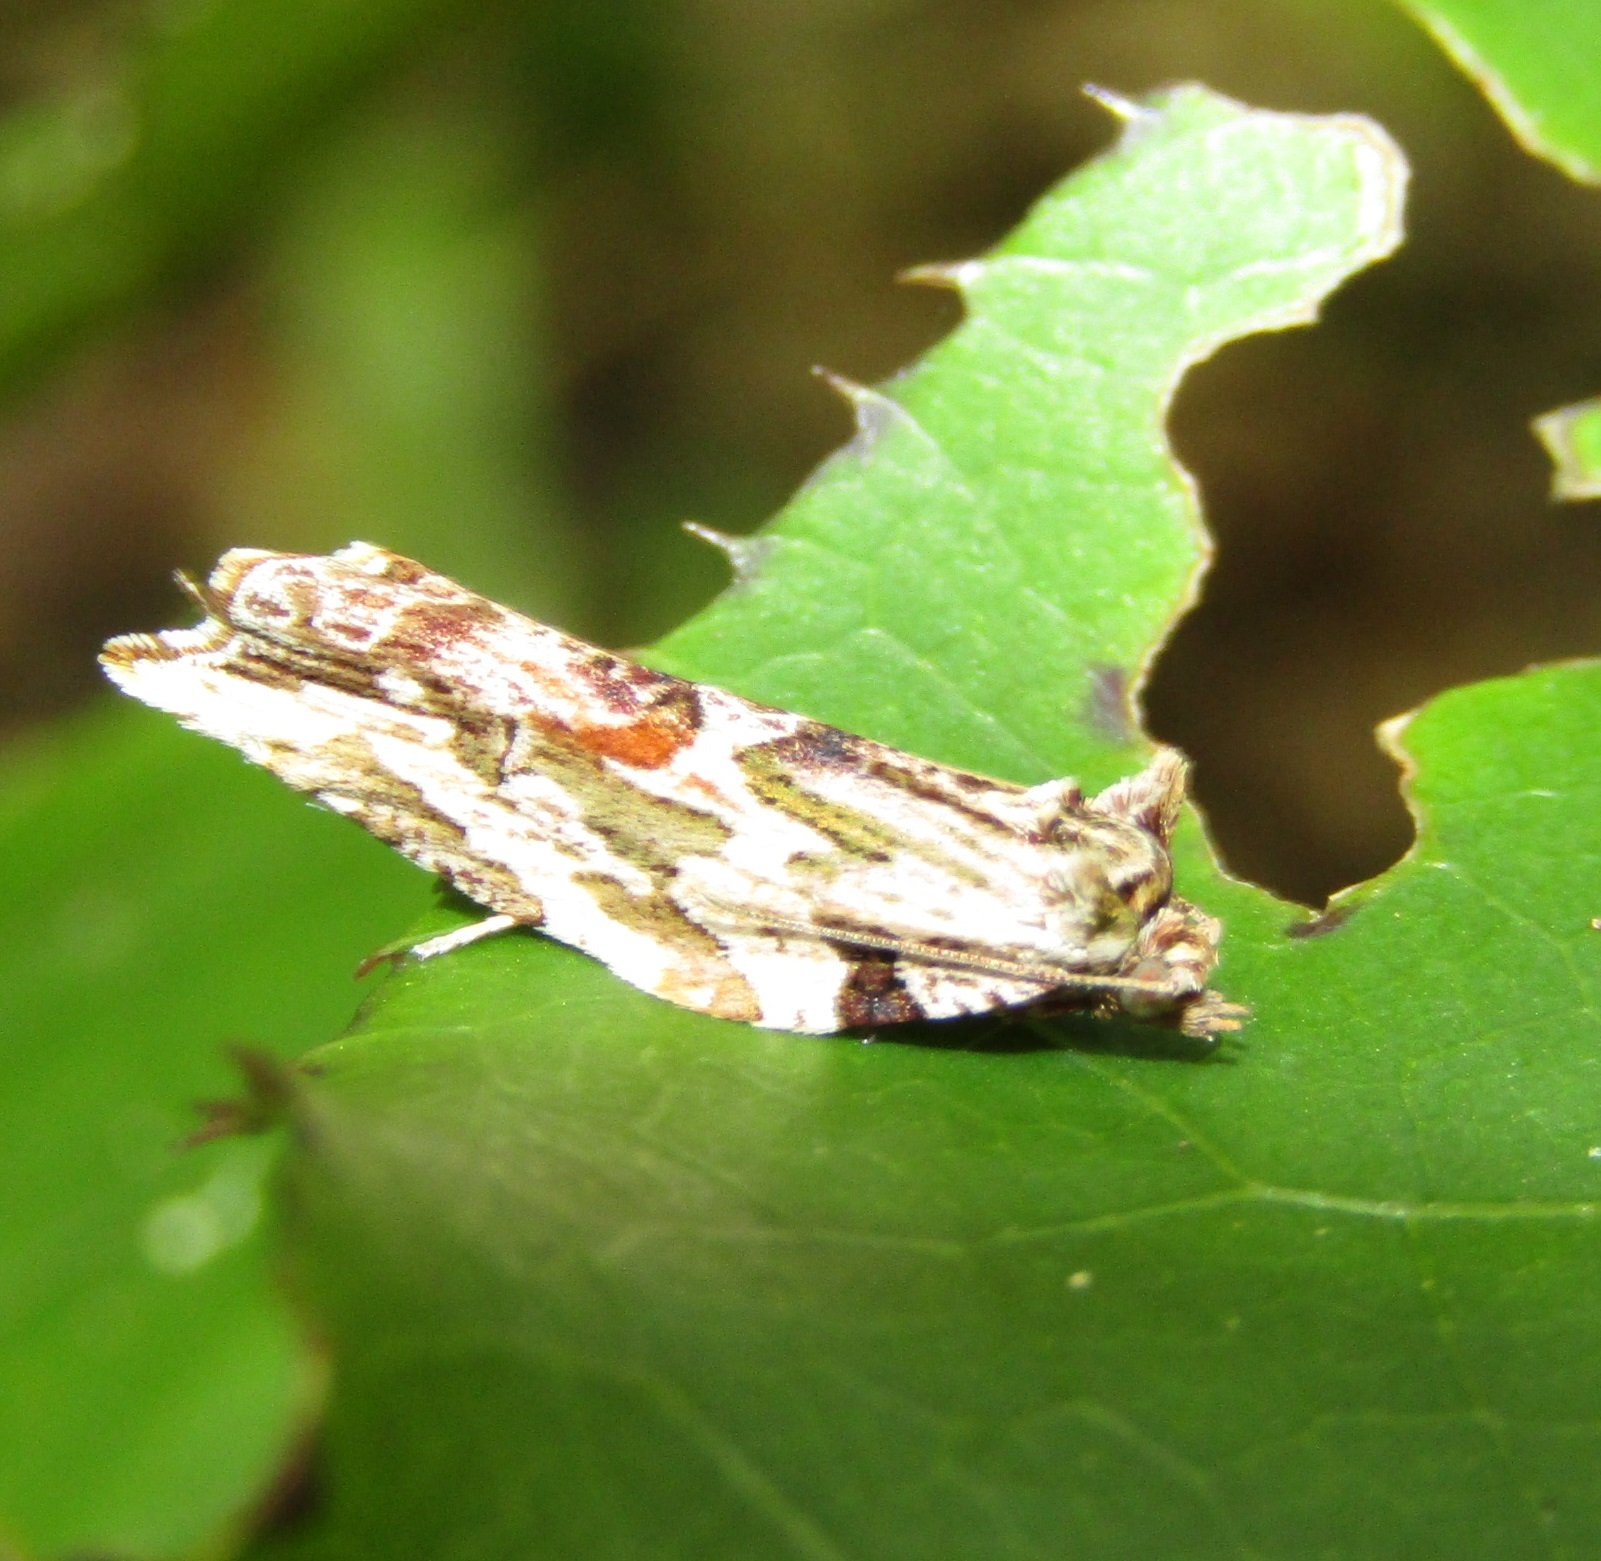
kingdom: Animalia
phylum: Arthropoda
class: Insecta
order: Lepidoptera
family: Tortricidae
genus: Epalxiphora
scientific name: Epalxiphora axenana
